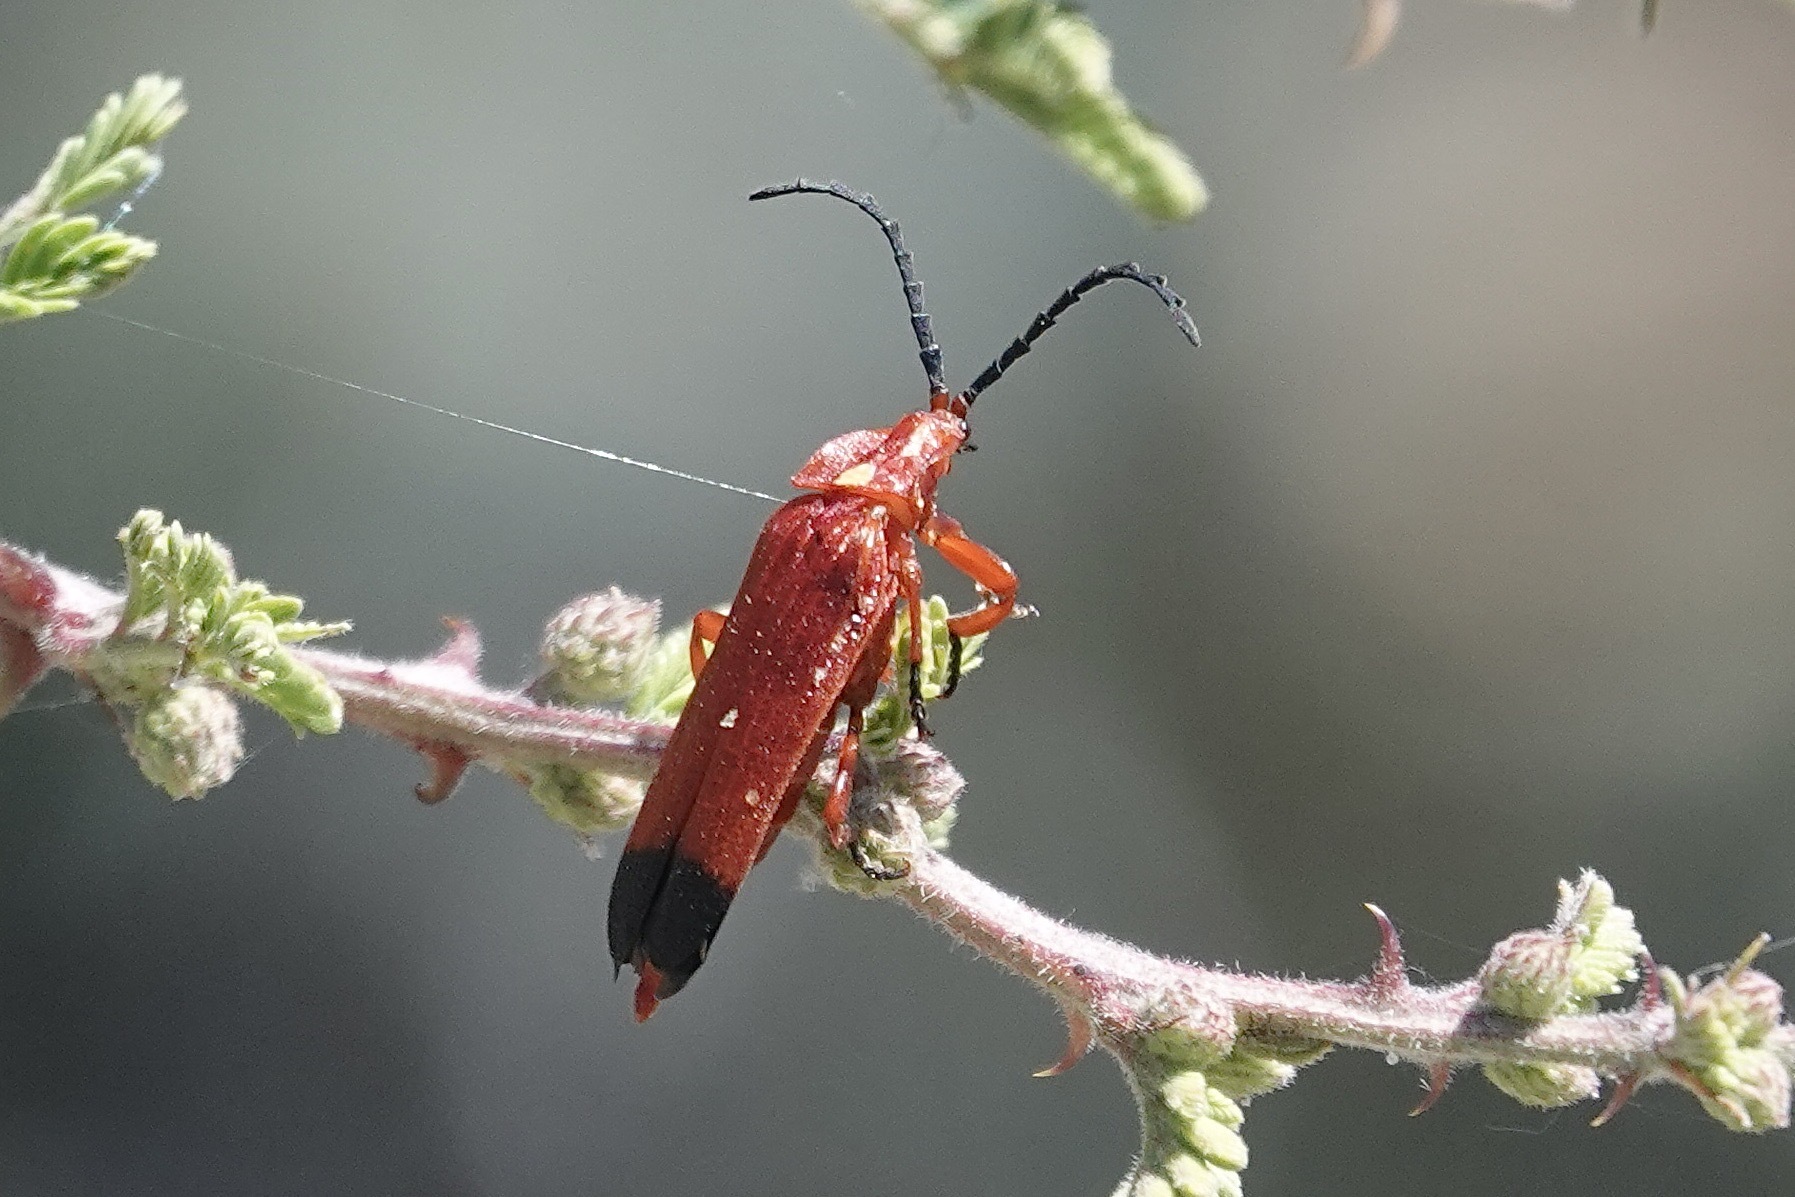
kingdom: Animalia
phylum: Arthropoda
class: Insecta
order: Coleoptera
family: Lycidae
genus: Lycus
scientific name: Lycus sanguineus
